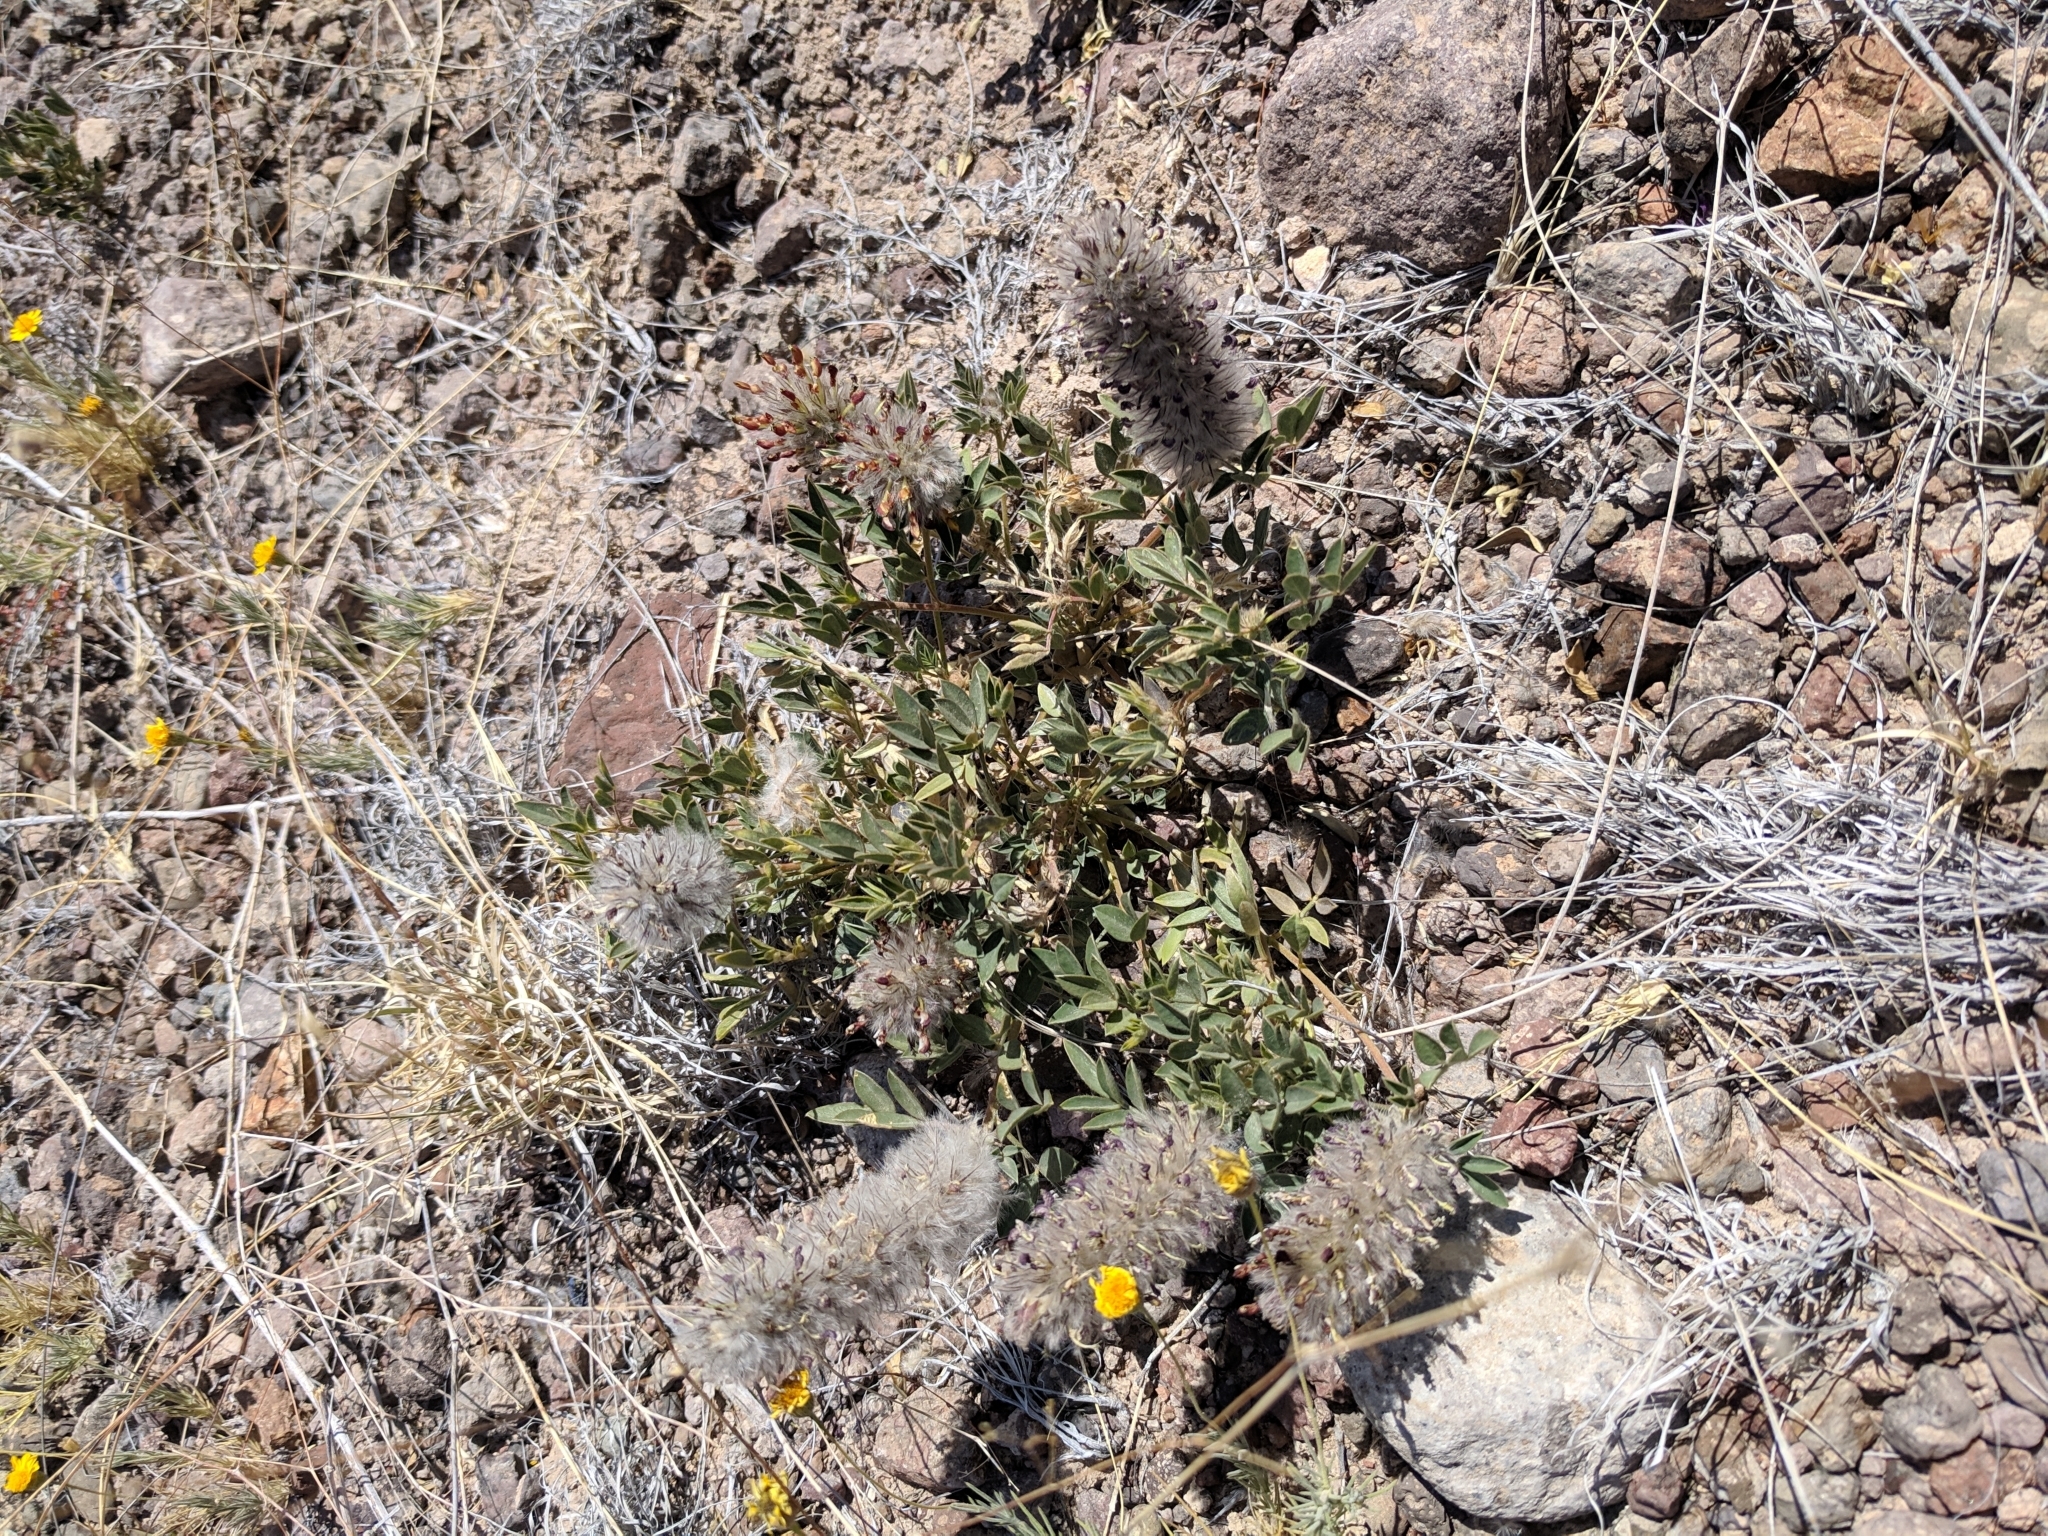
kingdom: Plantae
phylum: Tracheophyta
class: Magnoliopsida
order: Fabales
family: Fabaceae
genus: Dalea
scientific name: Dalea wrightii
